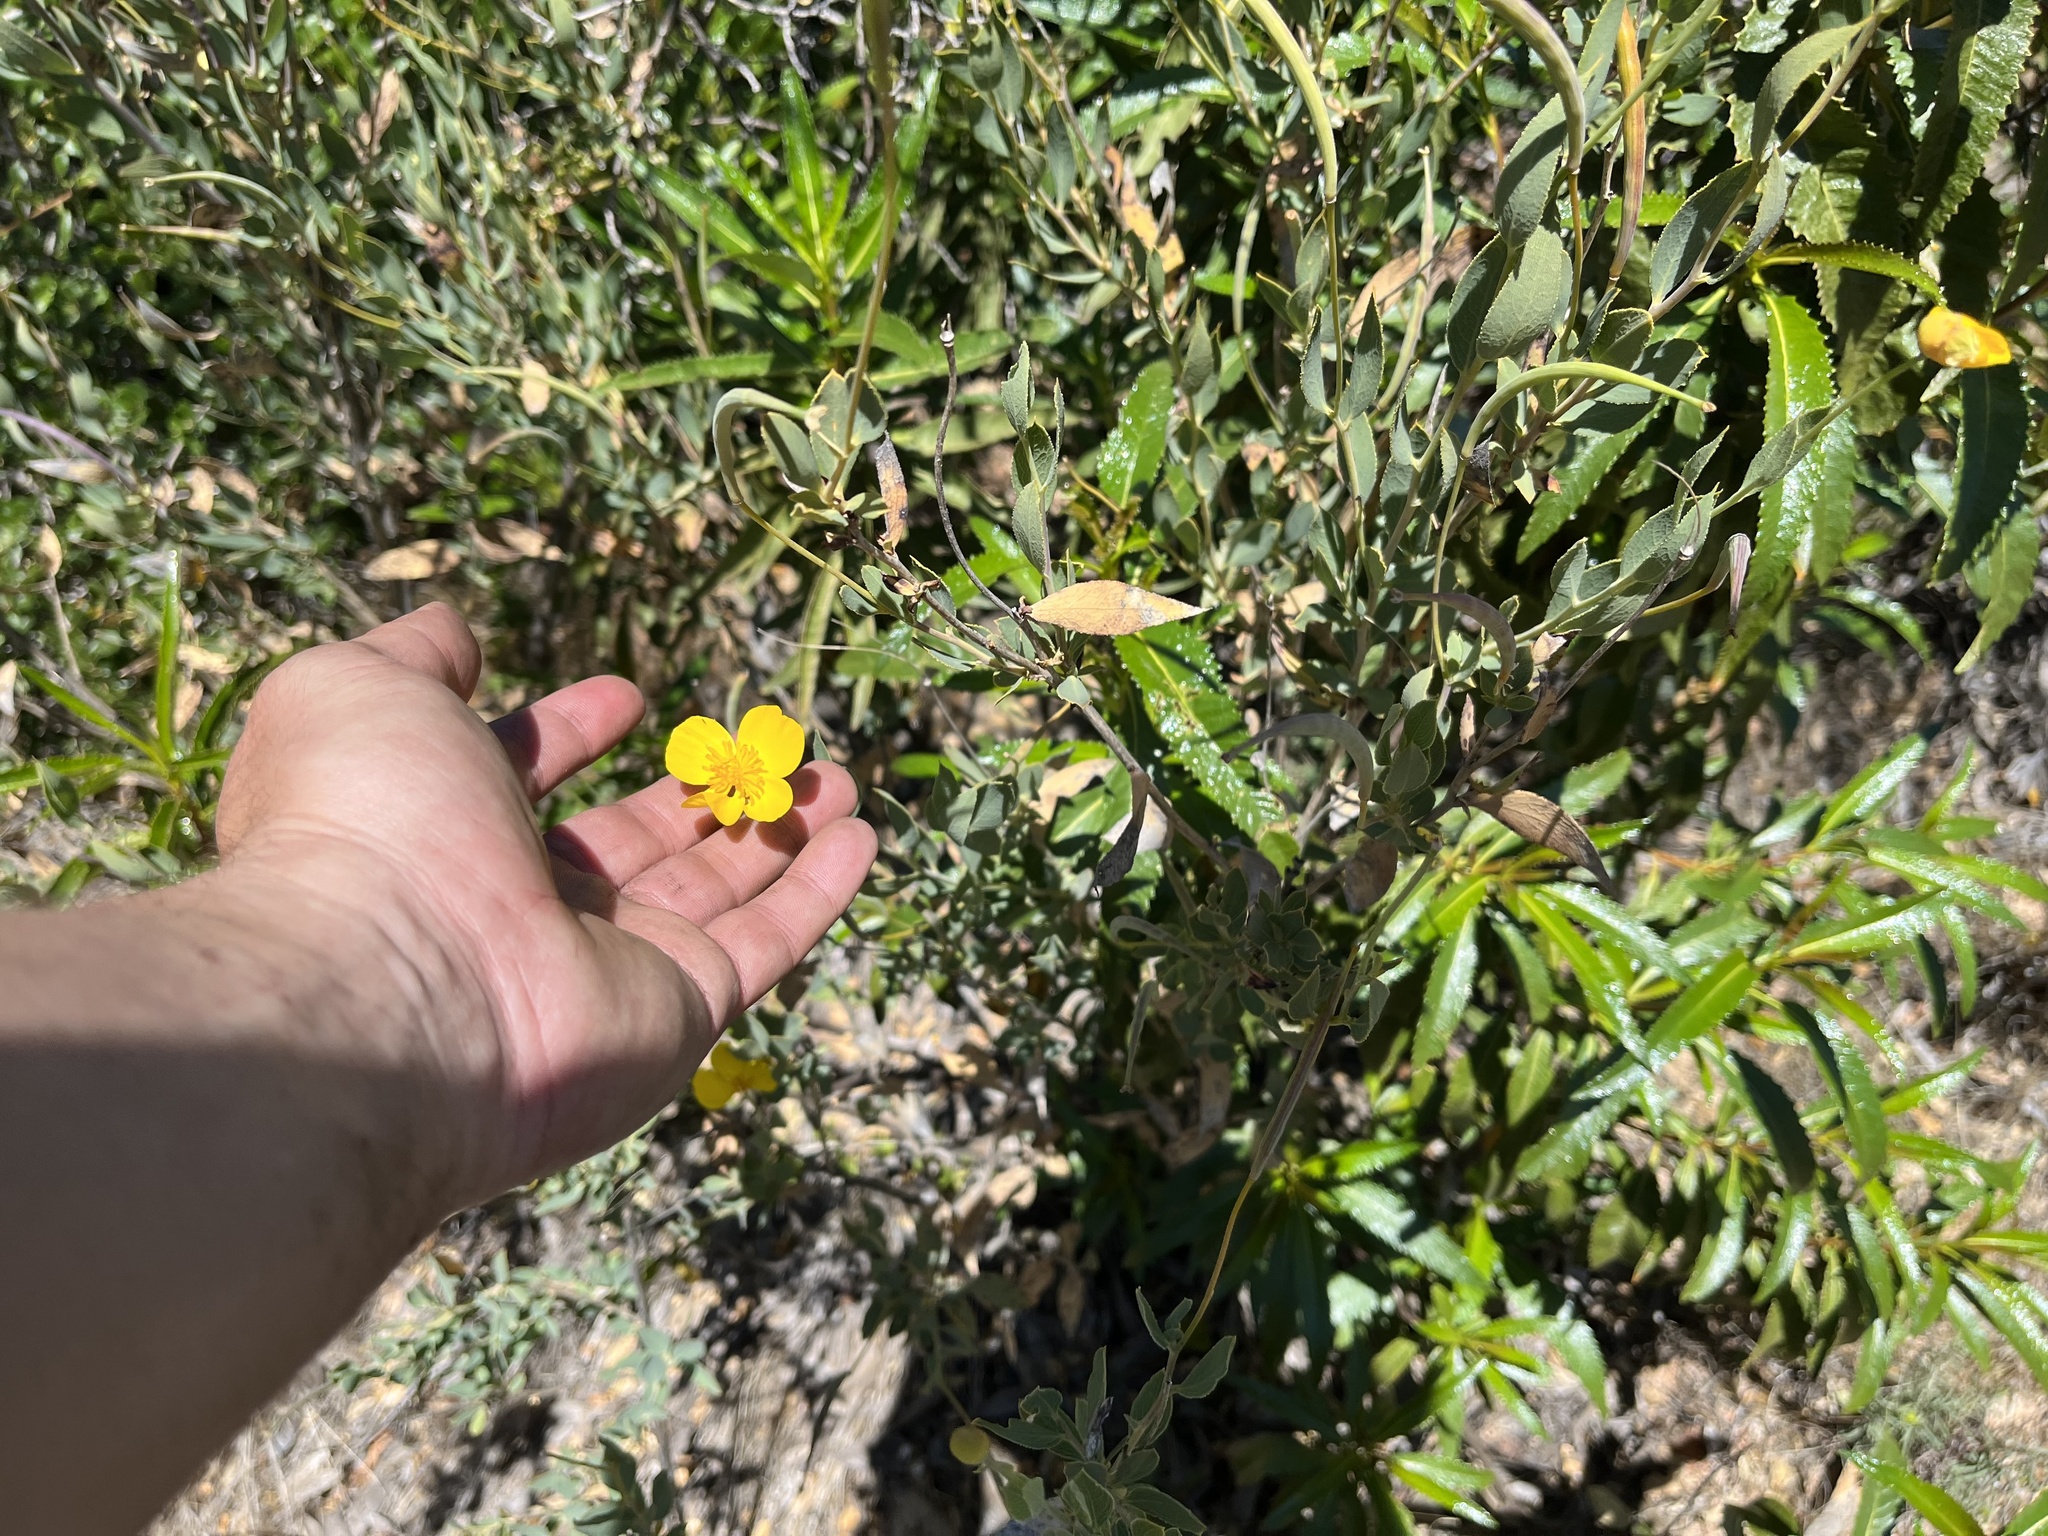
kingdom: Plantae
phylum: Tracheophyta
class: Magnoliopsida
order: Ranunculales
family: Papaveraceae
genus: Dendromecon
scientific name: Dendromecon rigida
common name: Tree poppy
